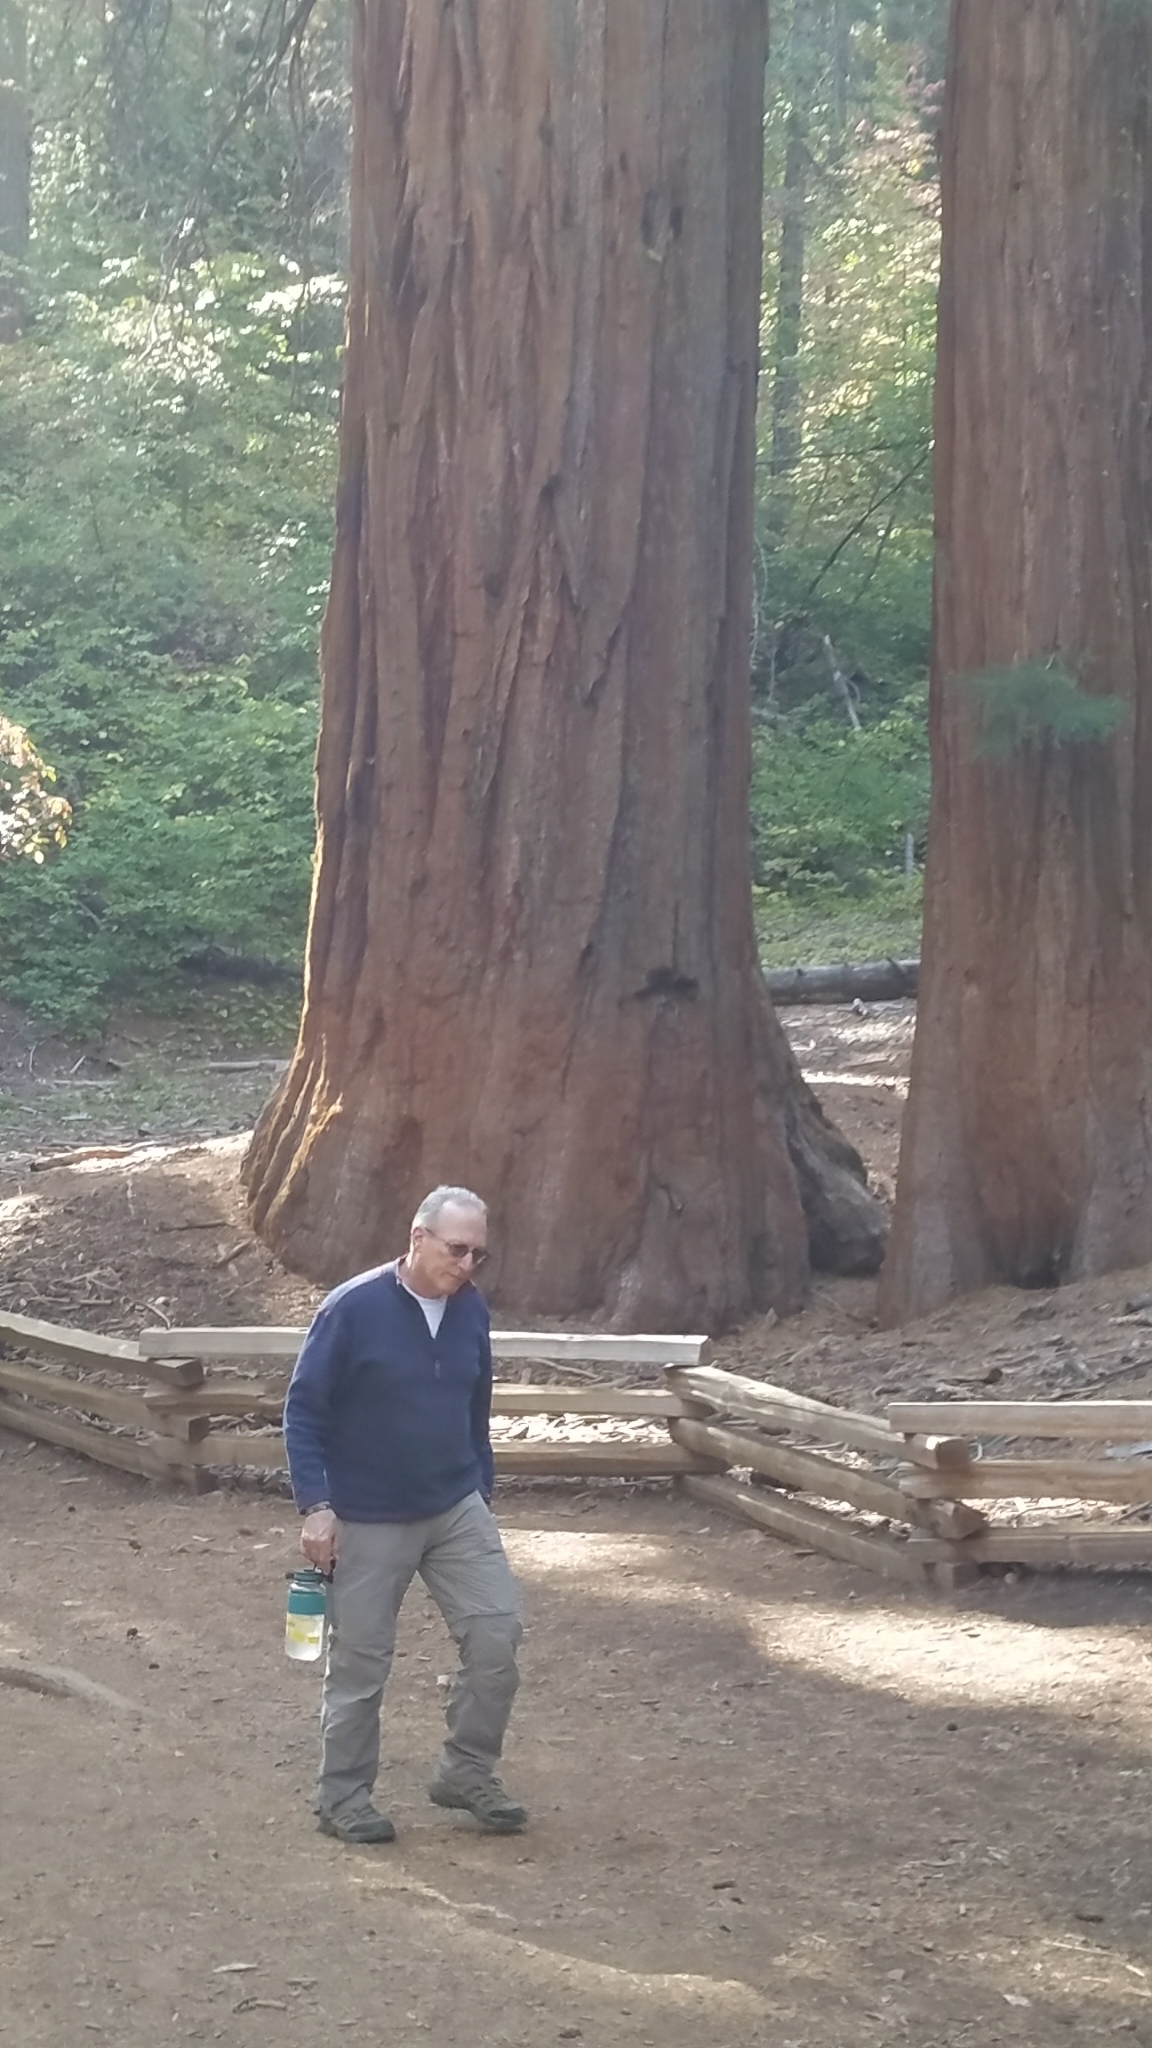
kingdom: Plantae
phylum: Tracheophyta
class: Pinopsida
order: Pinales
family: Cupressaceae
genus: Sequoiadendron
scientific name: Sequoiadendron giganteum
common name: Wellingtonia
